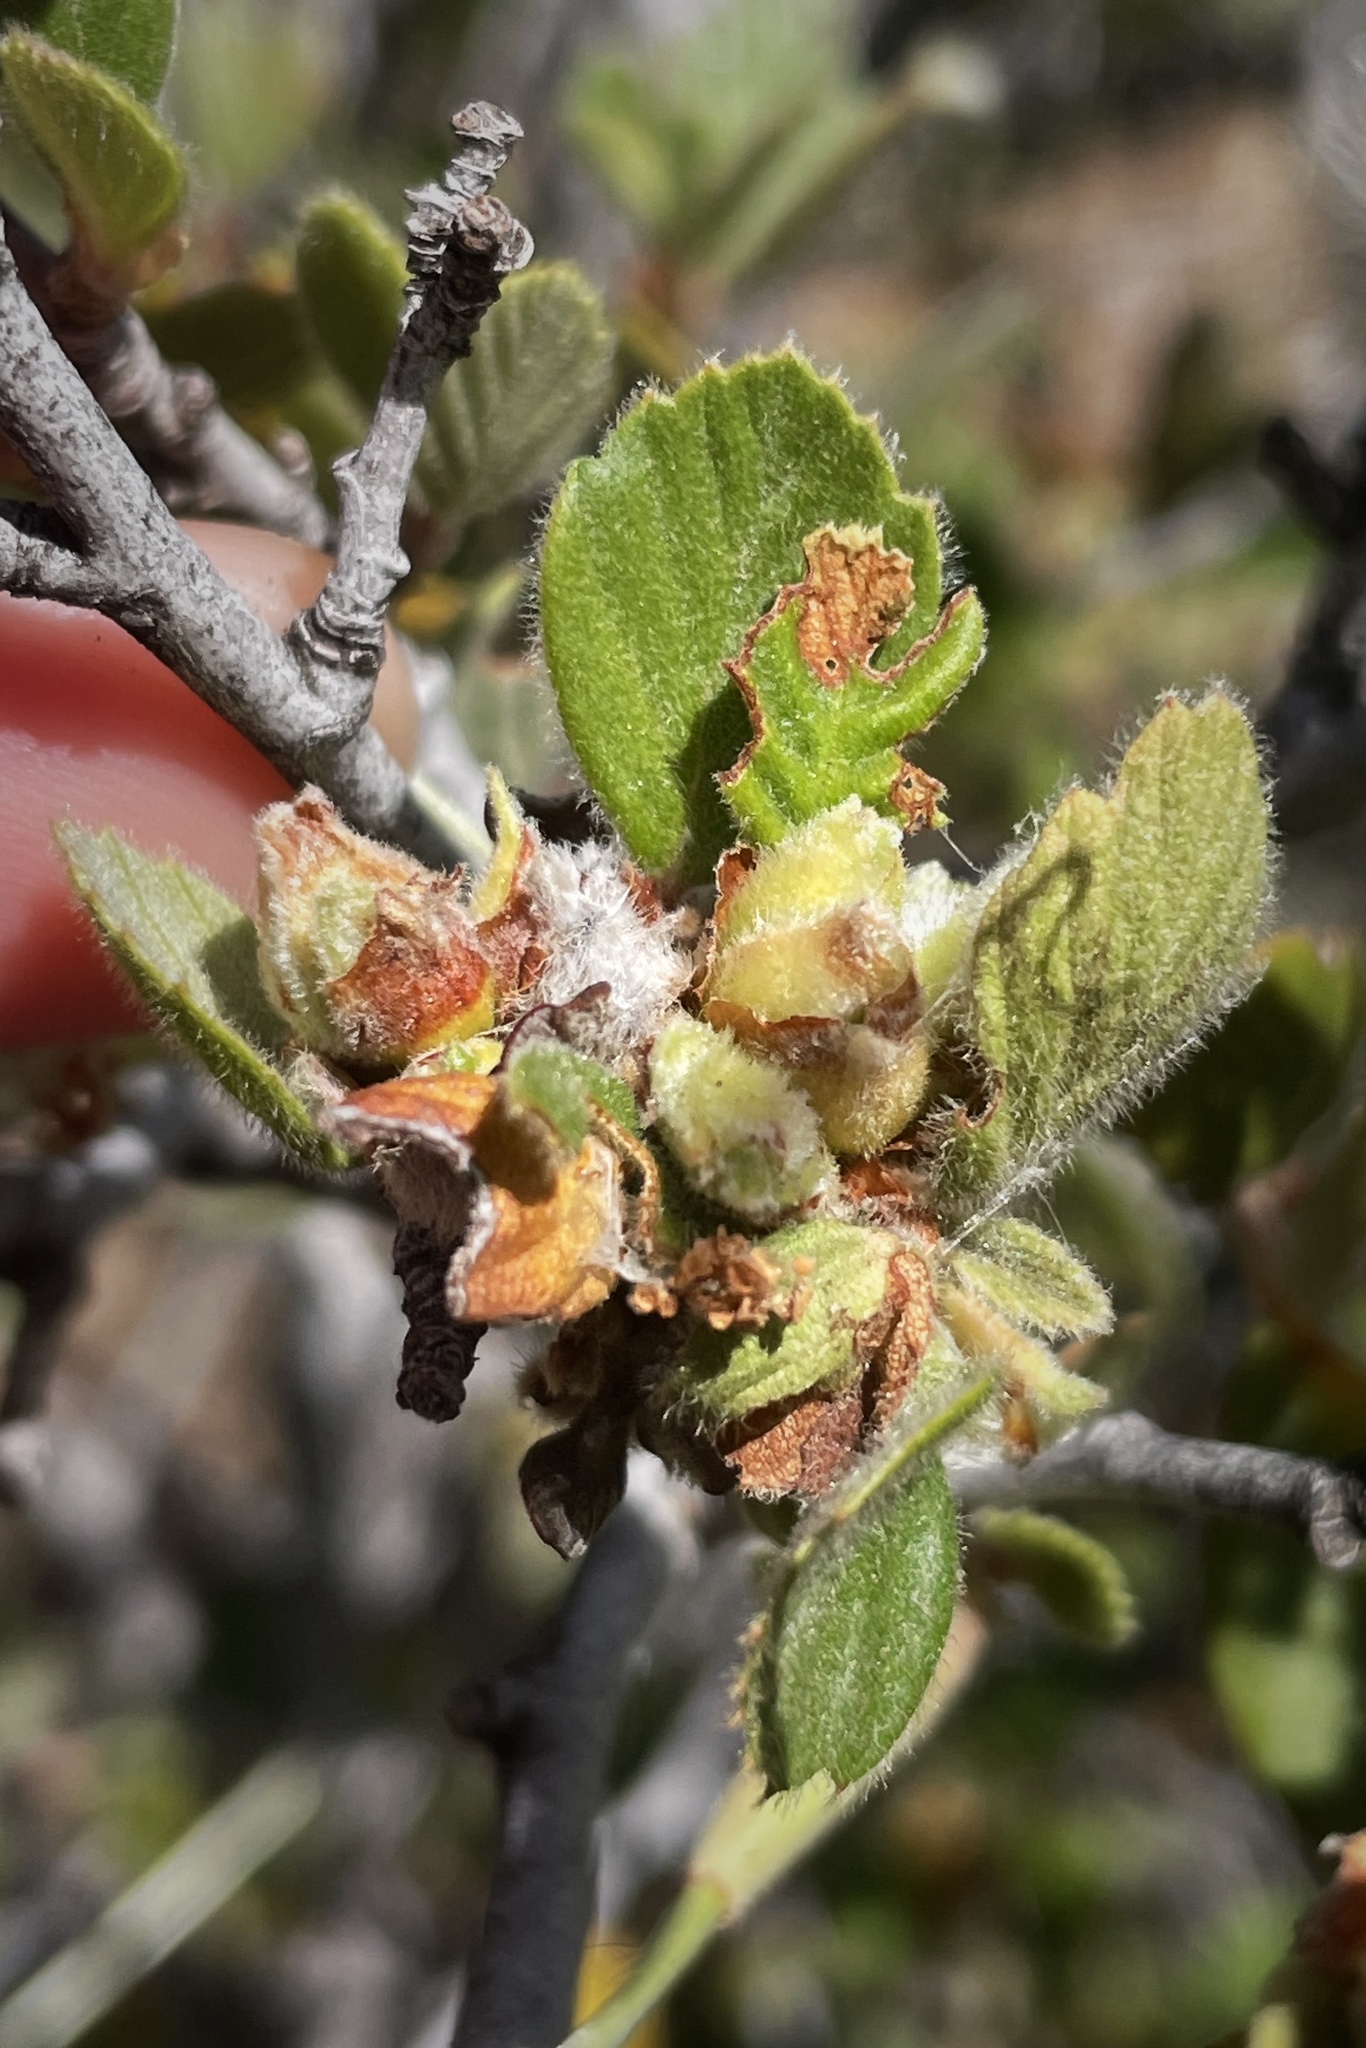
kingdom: Animalia
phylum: Arthropoda
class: Insecta
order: Diptera
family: Cecidomyiidae
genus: Dasineura
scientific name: Dasineura cercocarpi
